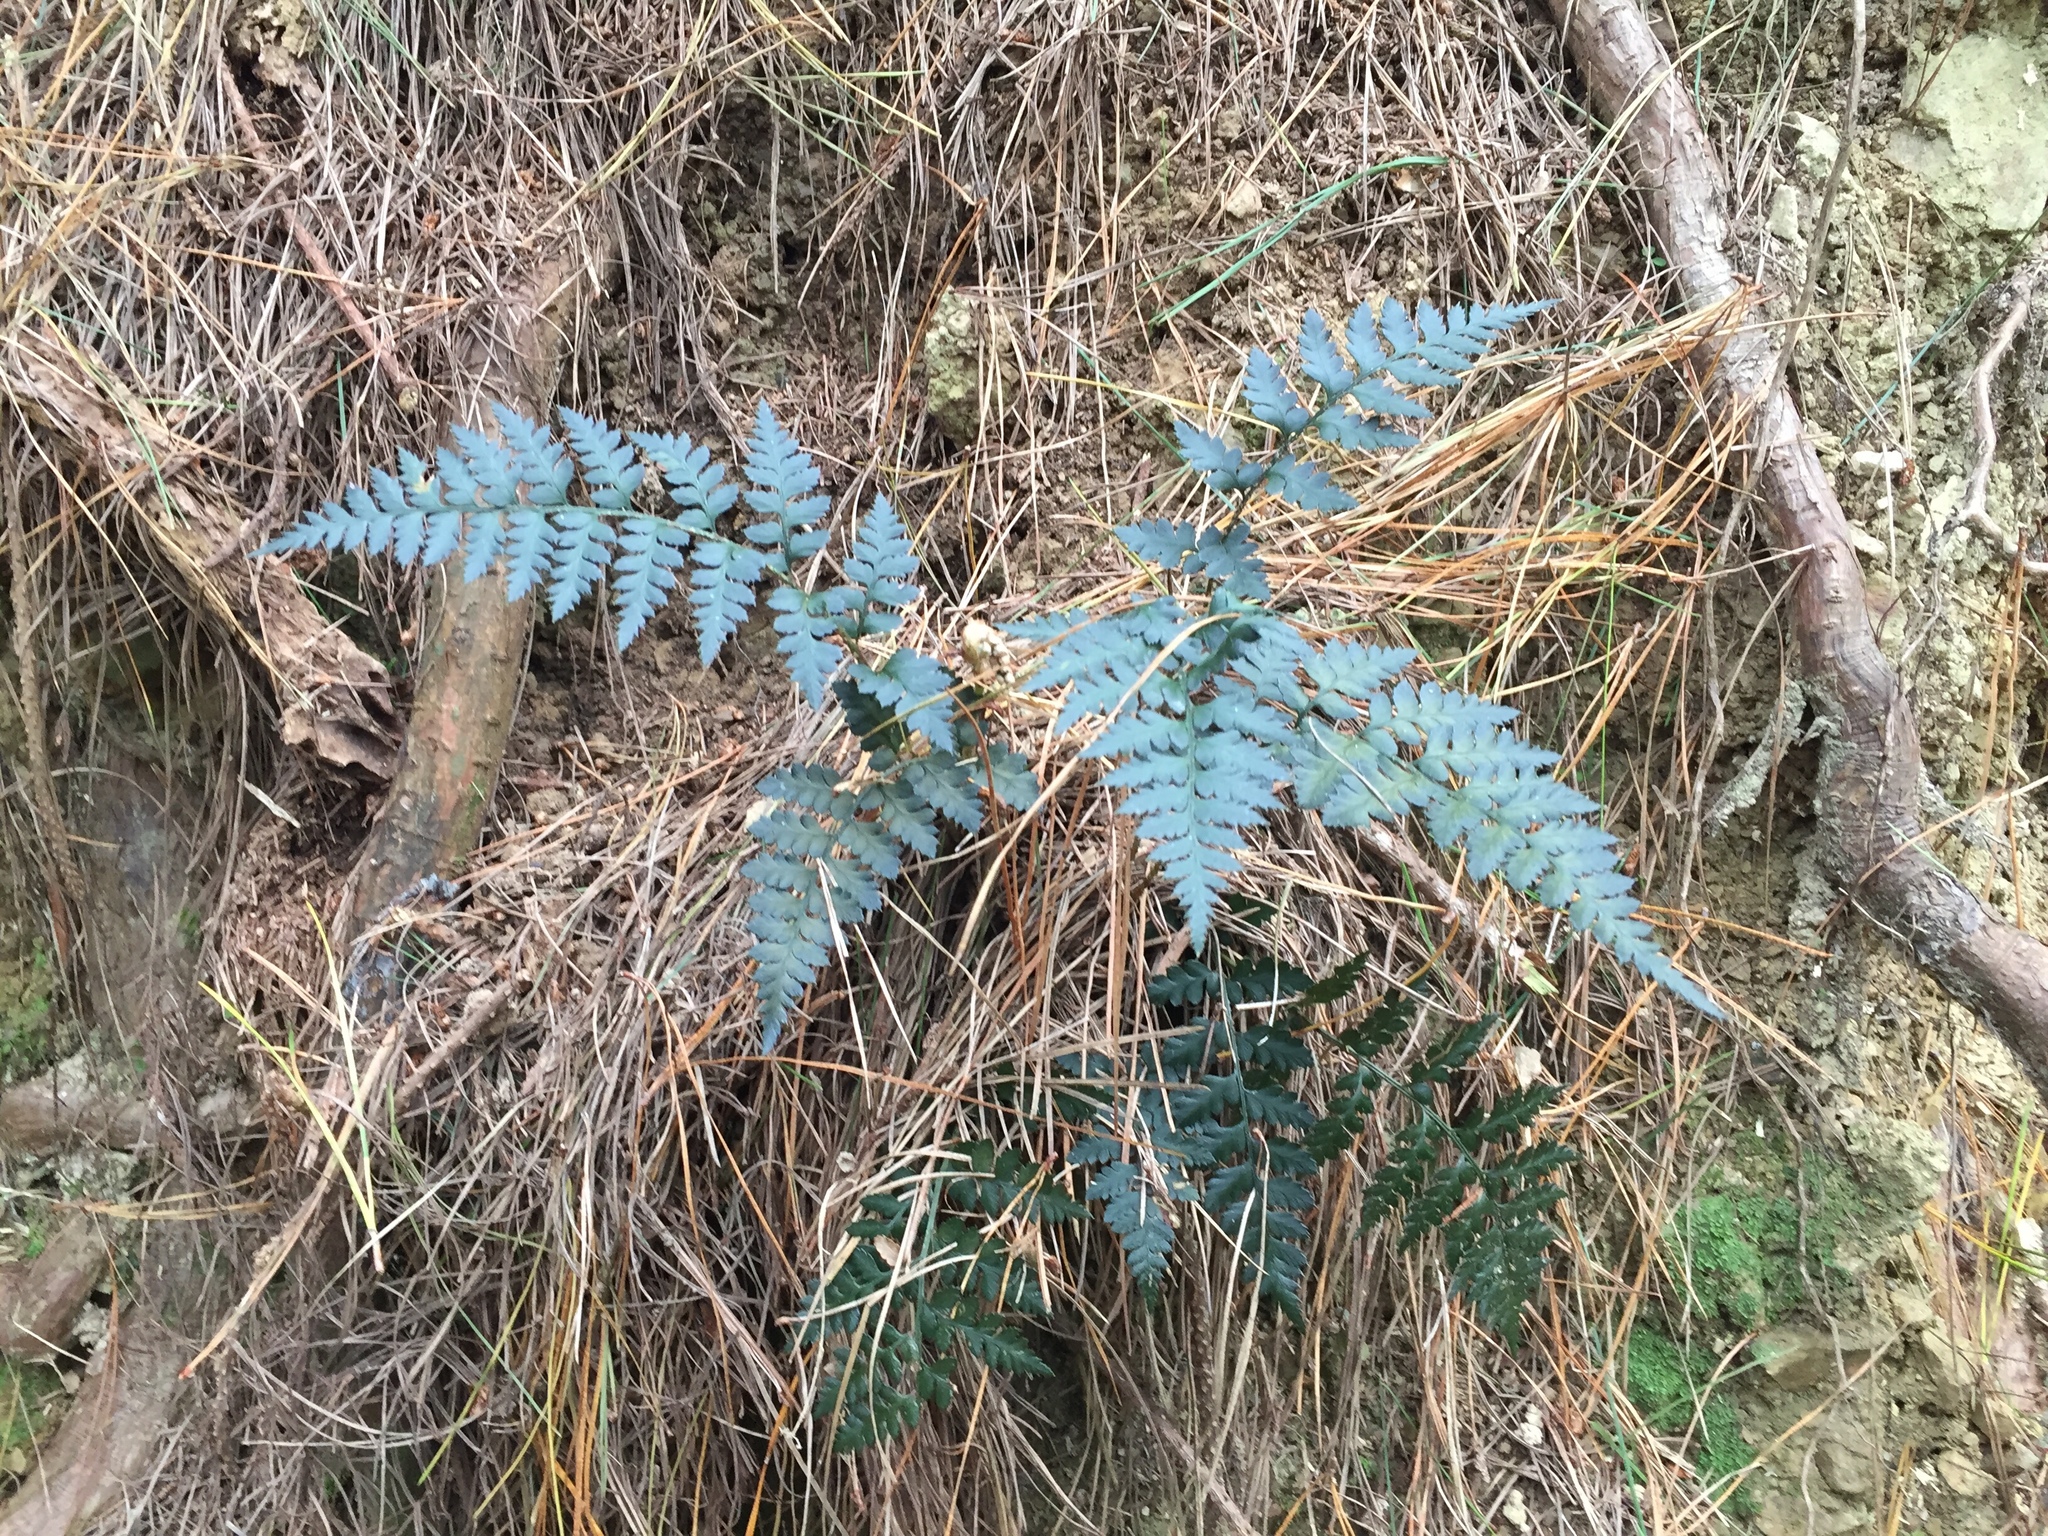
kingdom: Plantae
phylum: Tracheophyta
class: Polypodiopsida
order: Polypodiales
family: Dryopteridaceae
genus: Polystichum
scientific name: Polystichum oculatum
